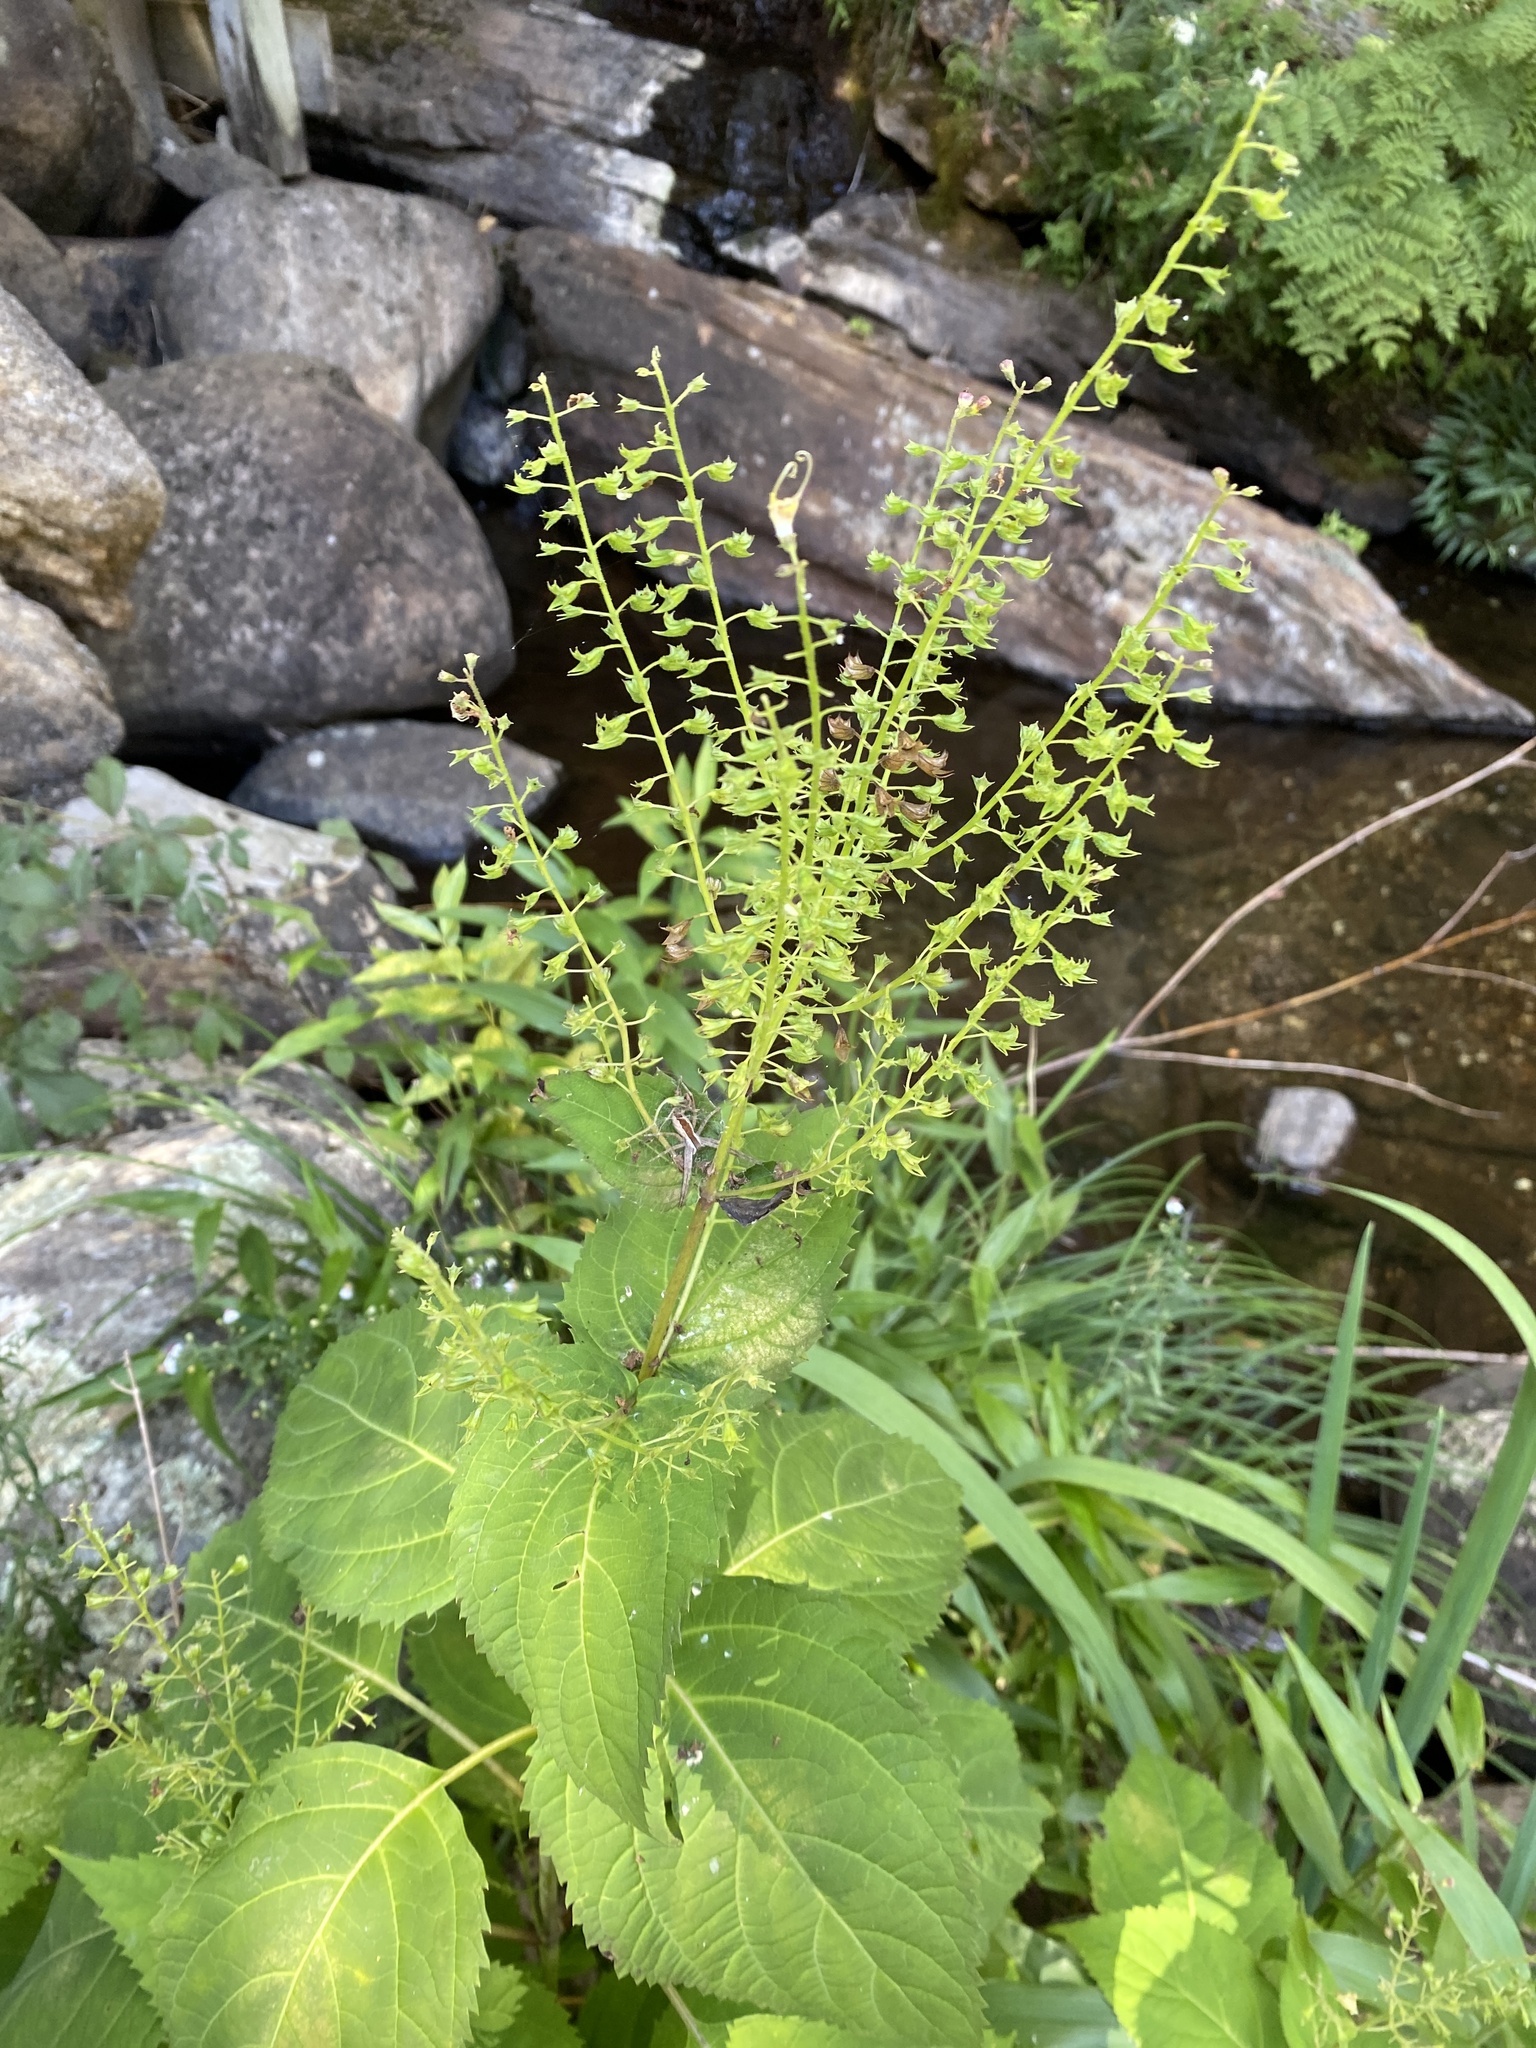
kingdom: Plantae
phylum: Tracheophyta
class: Magnoliopsida
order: Lamiales
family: Lamiaceae
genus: Collinsonia
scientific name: Collinsonia canadensis
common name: Northern horsebalm
